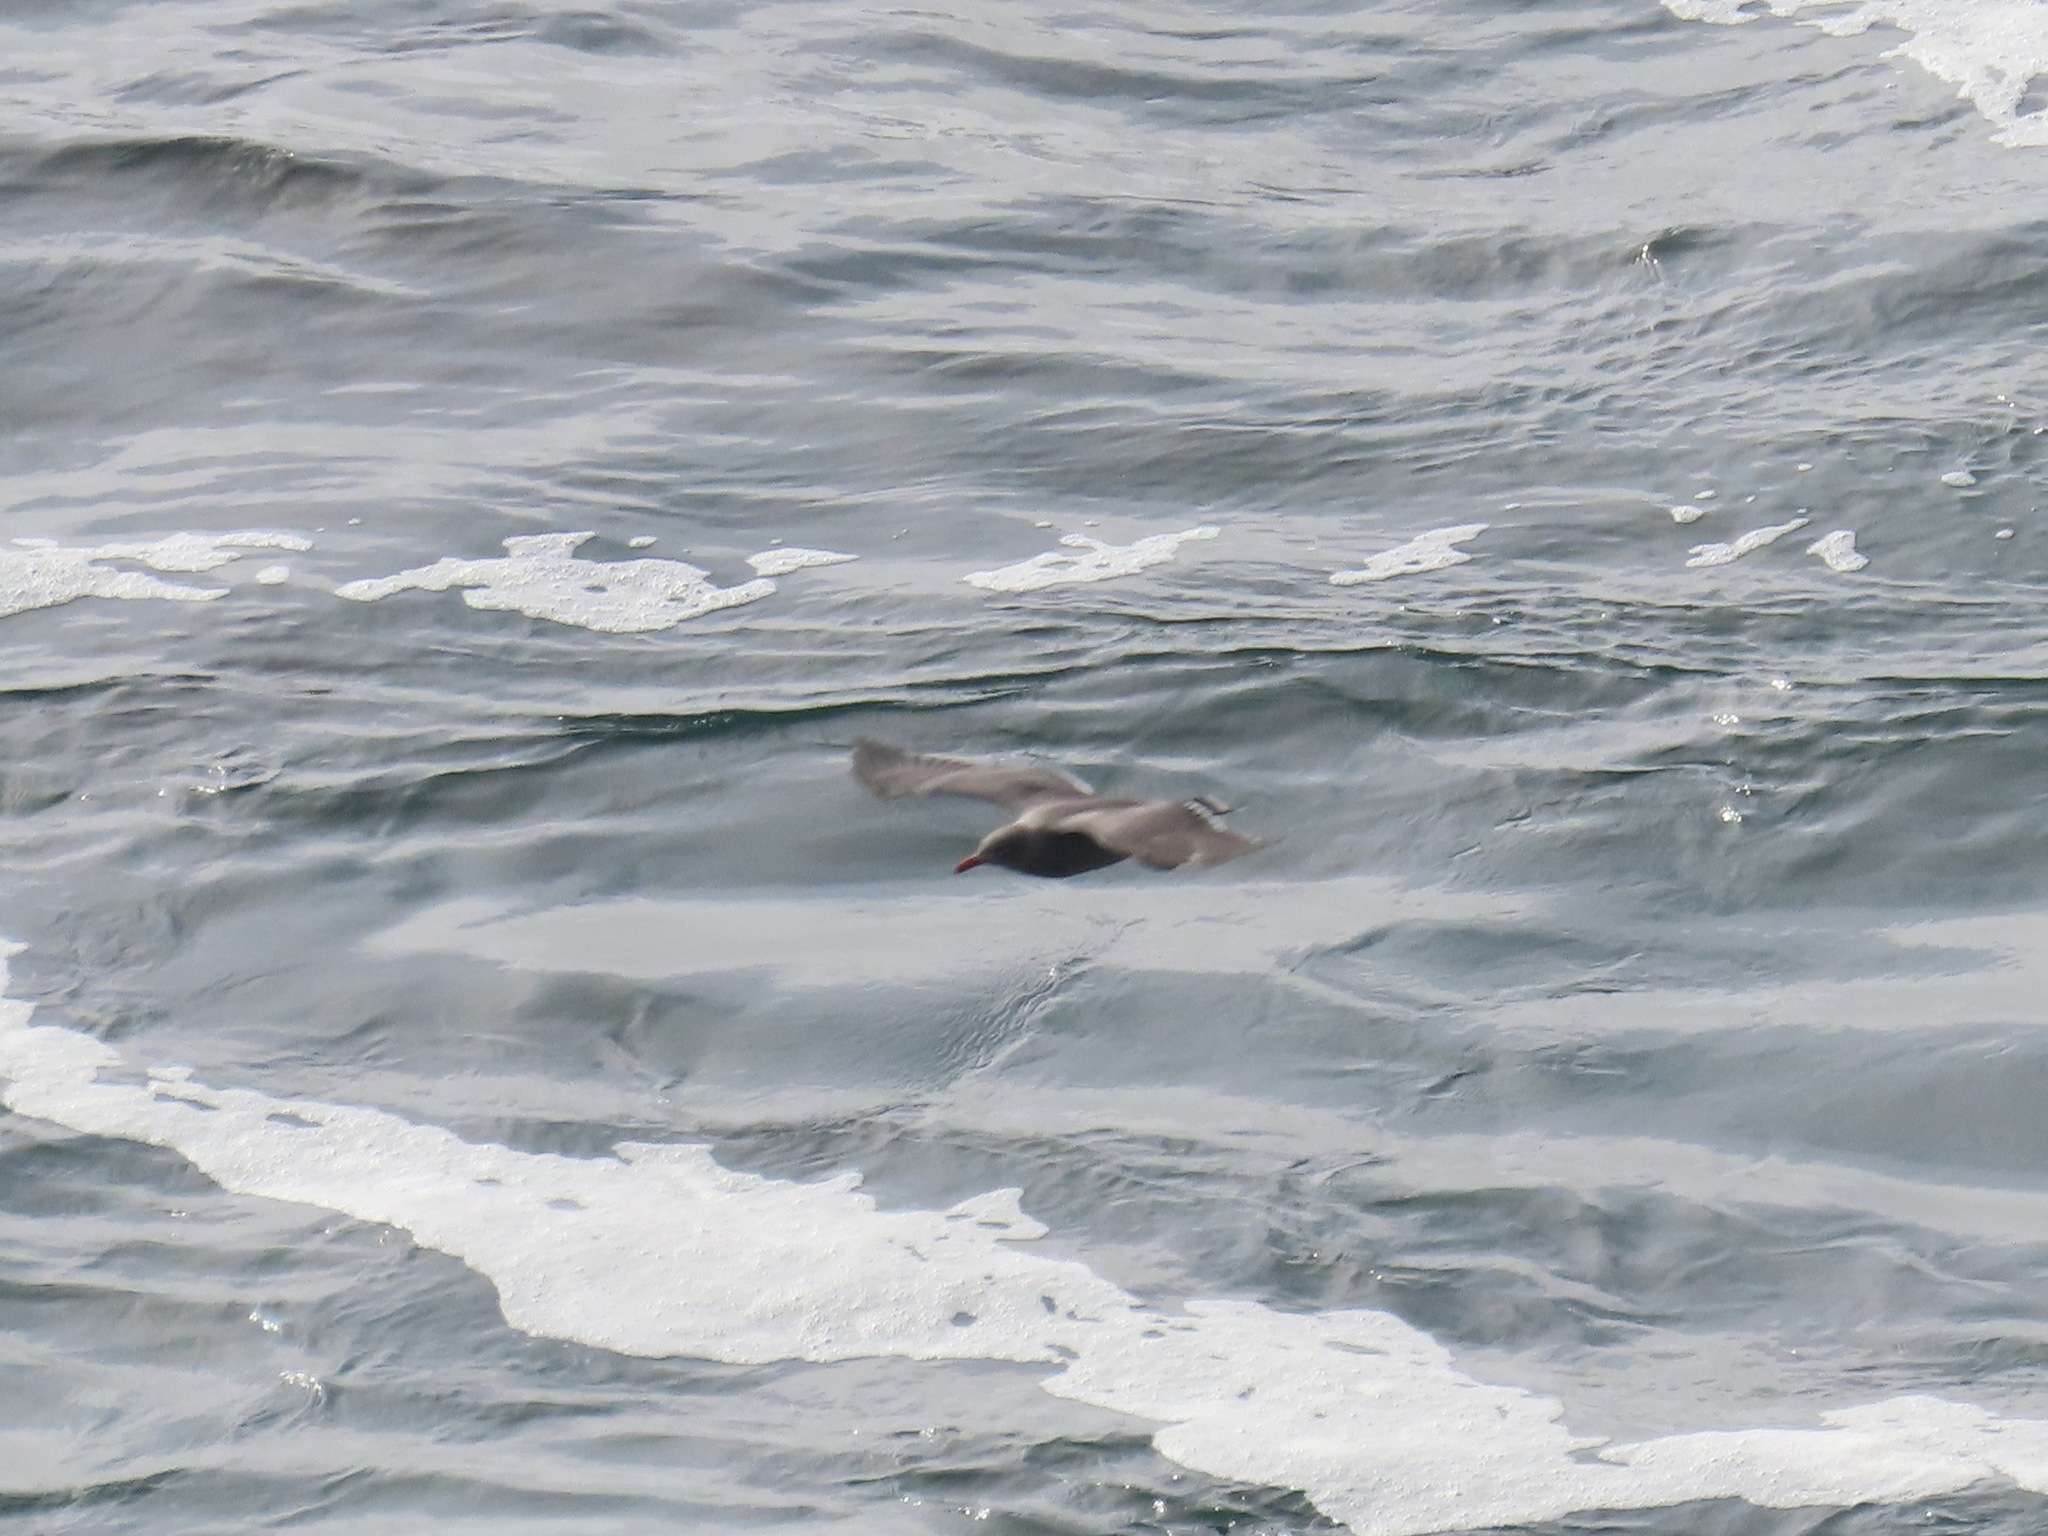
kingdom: Animalia
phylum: Chordata
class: Aves
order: Charadriiformes
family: Laridae
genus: Larus
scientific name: Larus heermanni
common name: Heermann's gull
